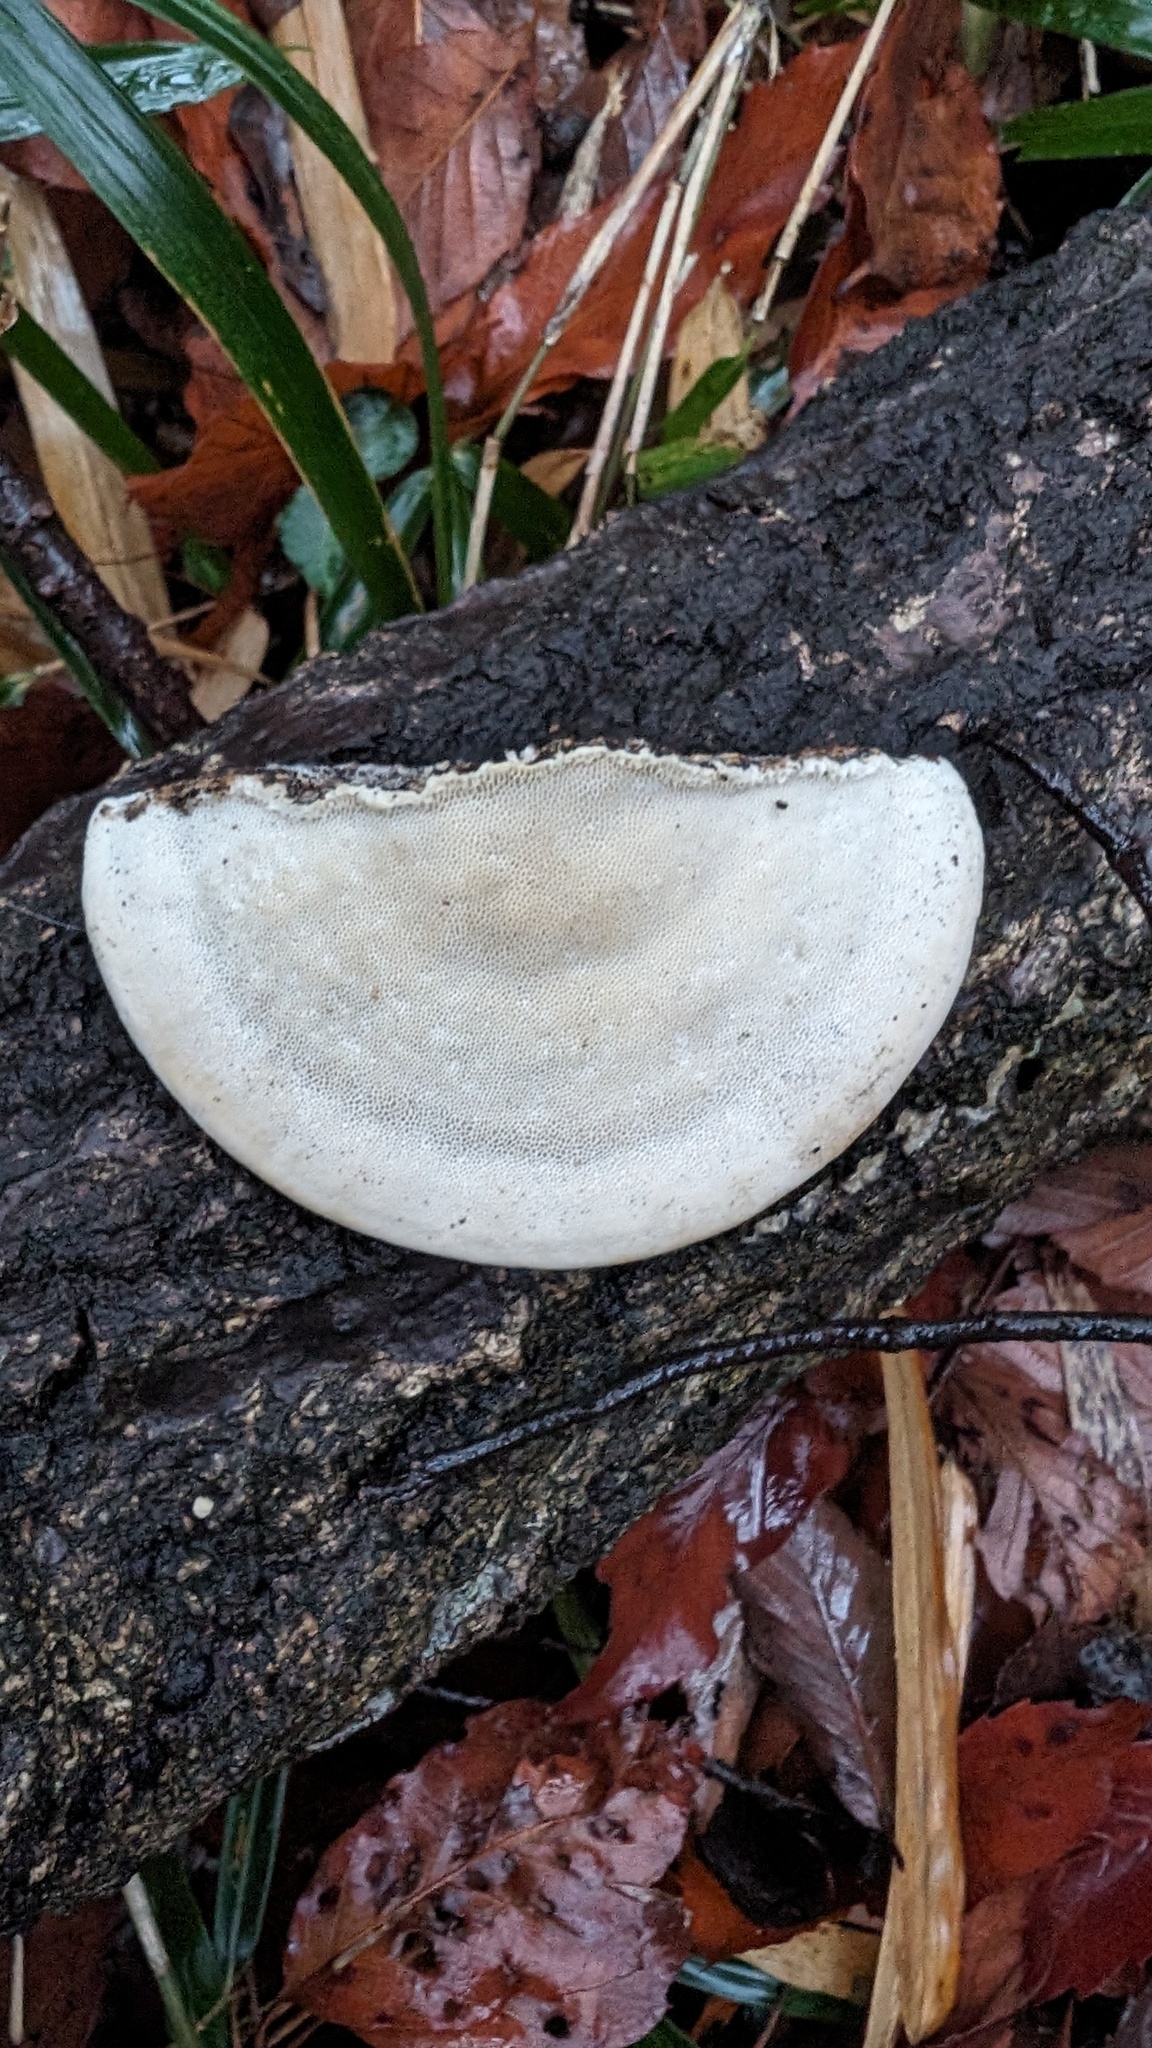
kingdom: Fungi
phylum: Basidiomycota
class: Agaricomycetes
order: Polyporales
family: Polyporaceae
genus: Trametes
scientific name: Trametes orientalis
